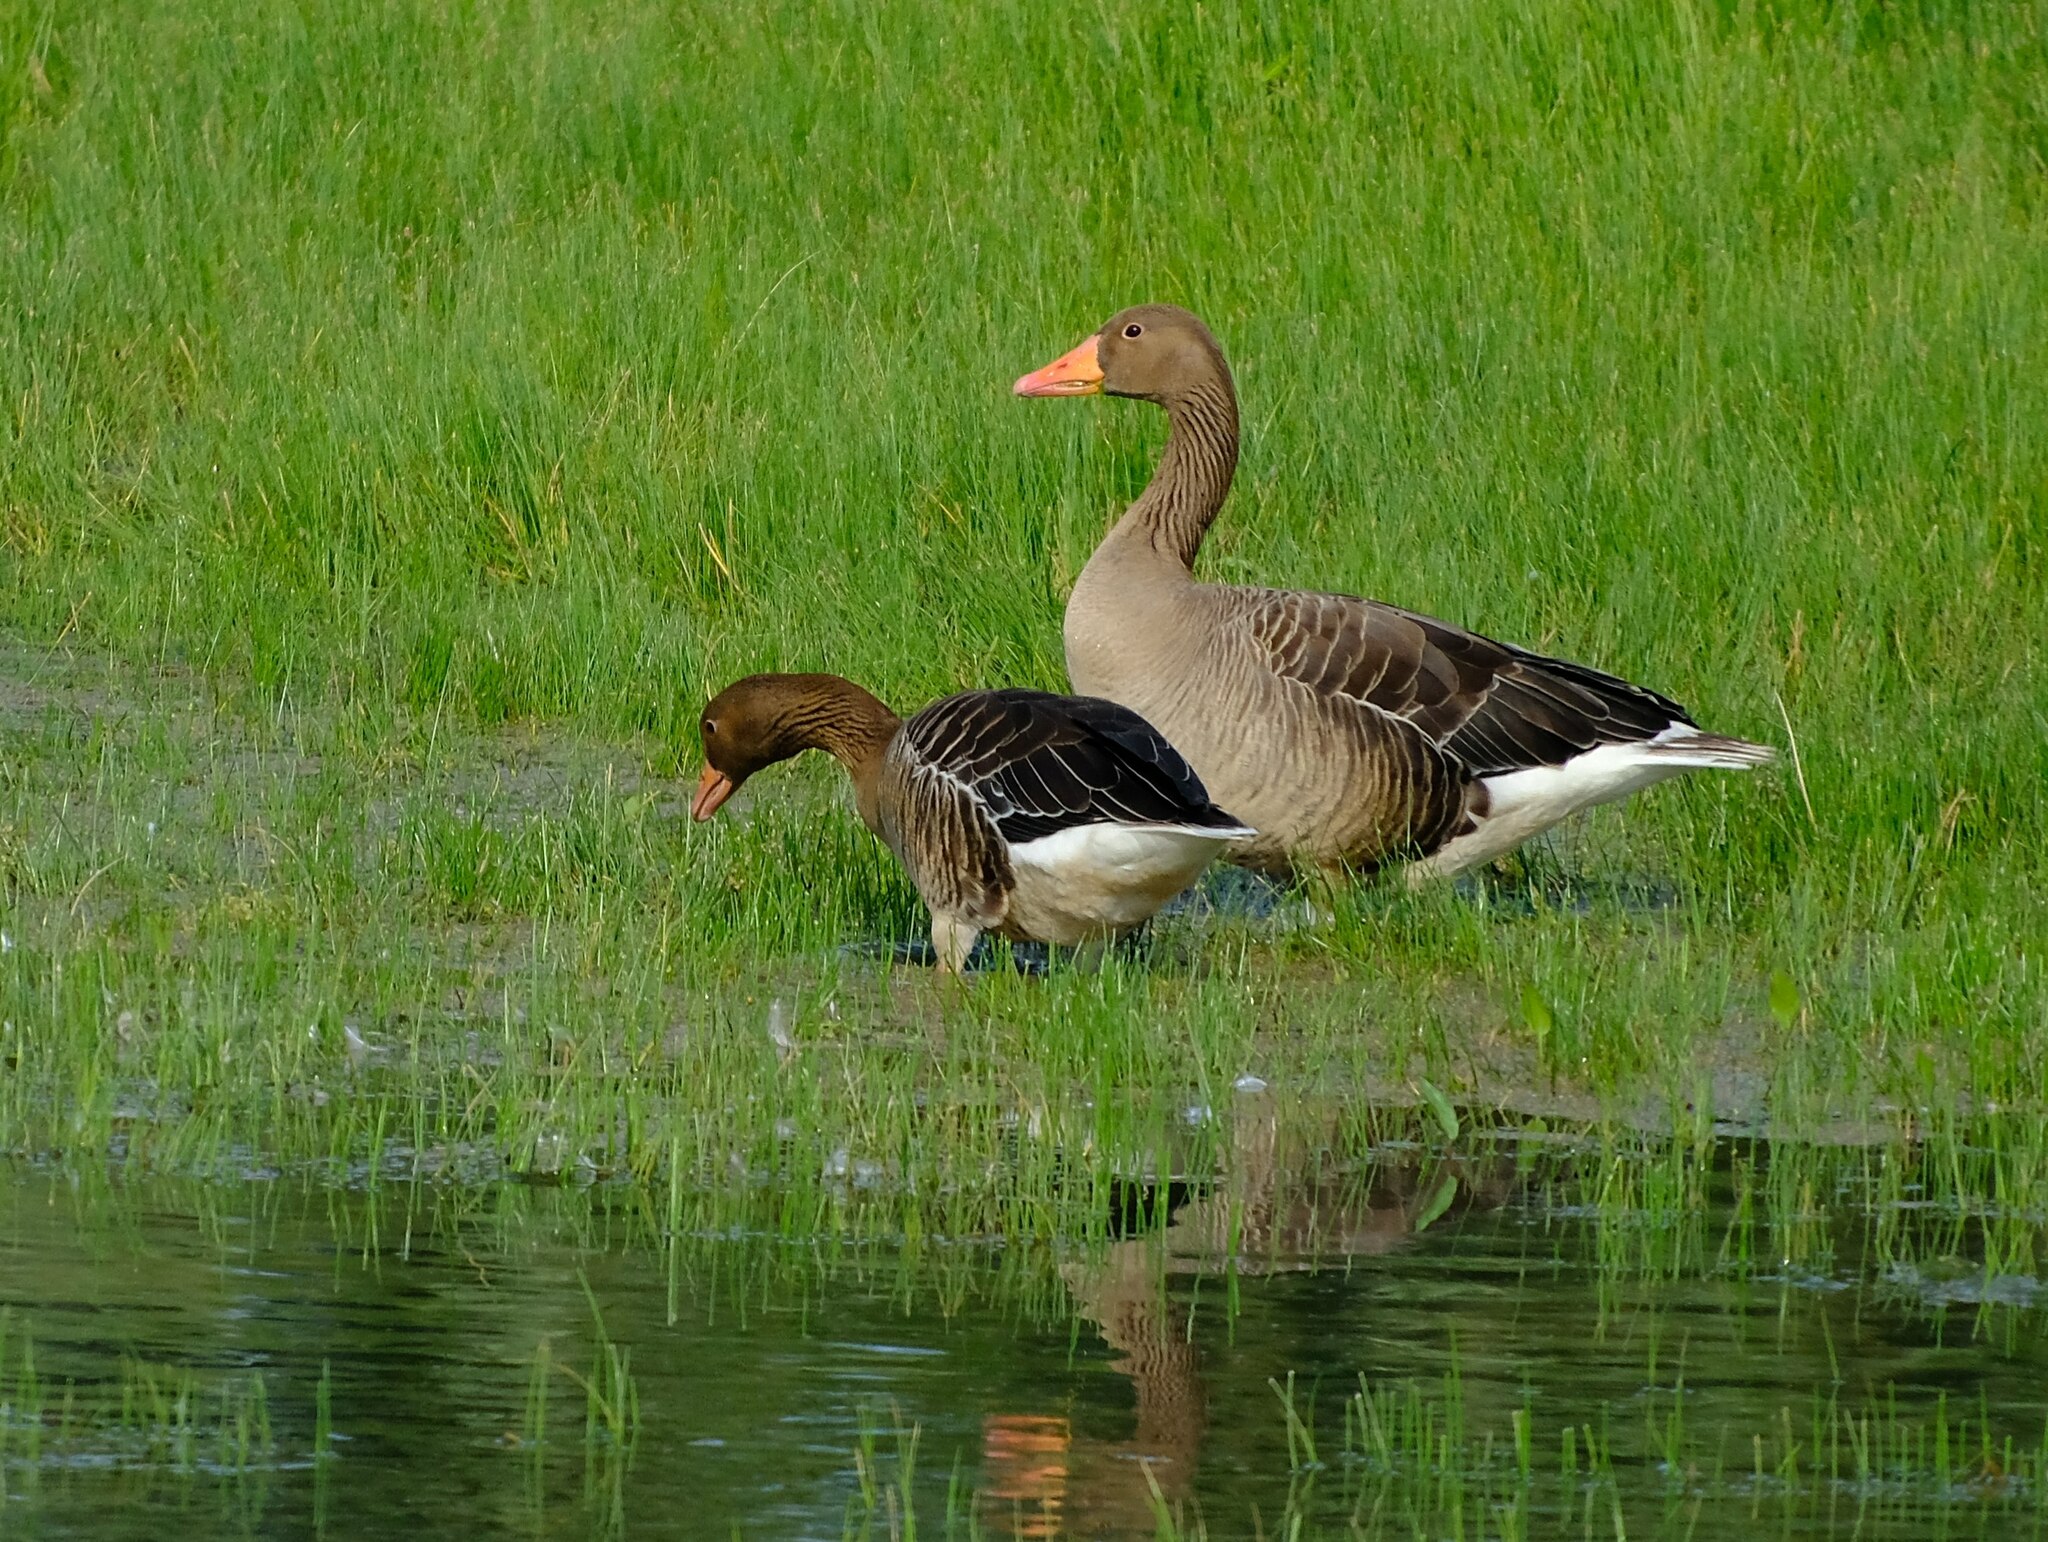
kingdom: Animalia
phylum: Chordata
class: Aves
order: Anseriformes
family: Anatidae
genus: Anser
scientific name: Anser anser
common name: Greylag goose
